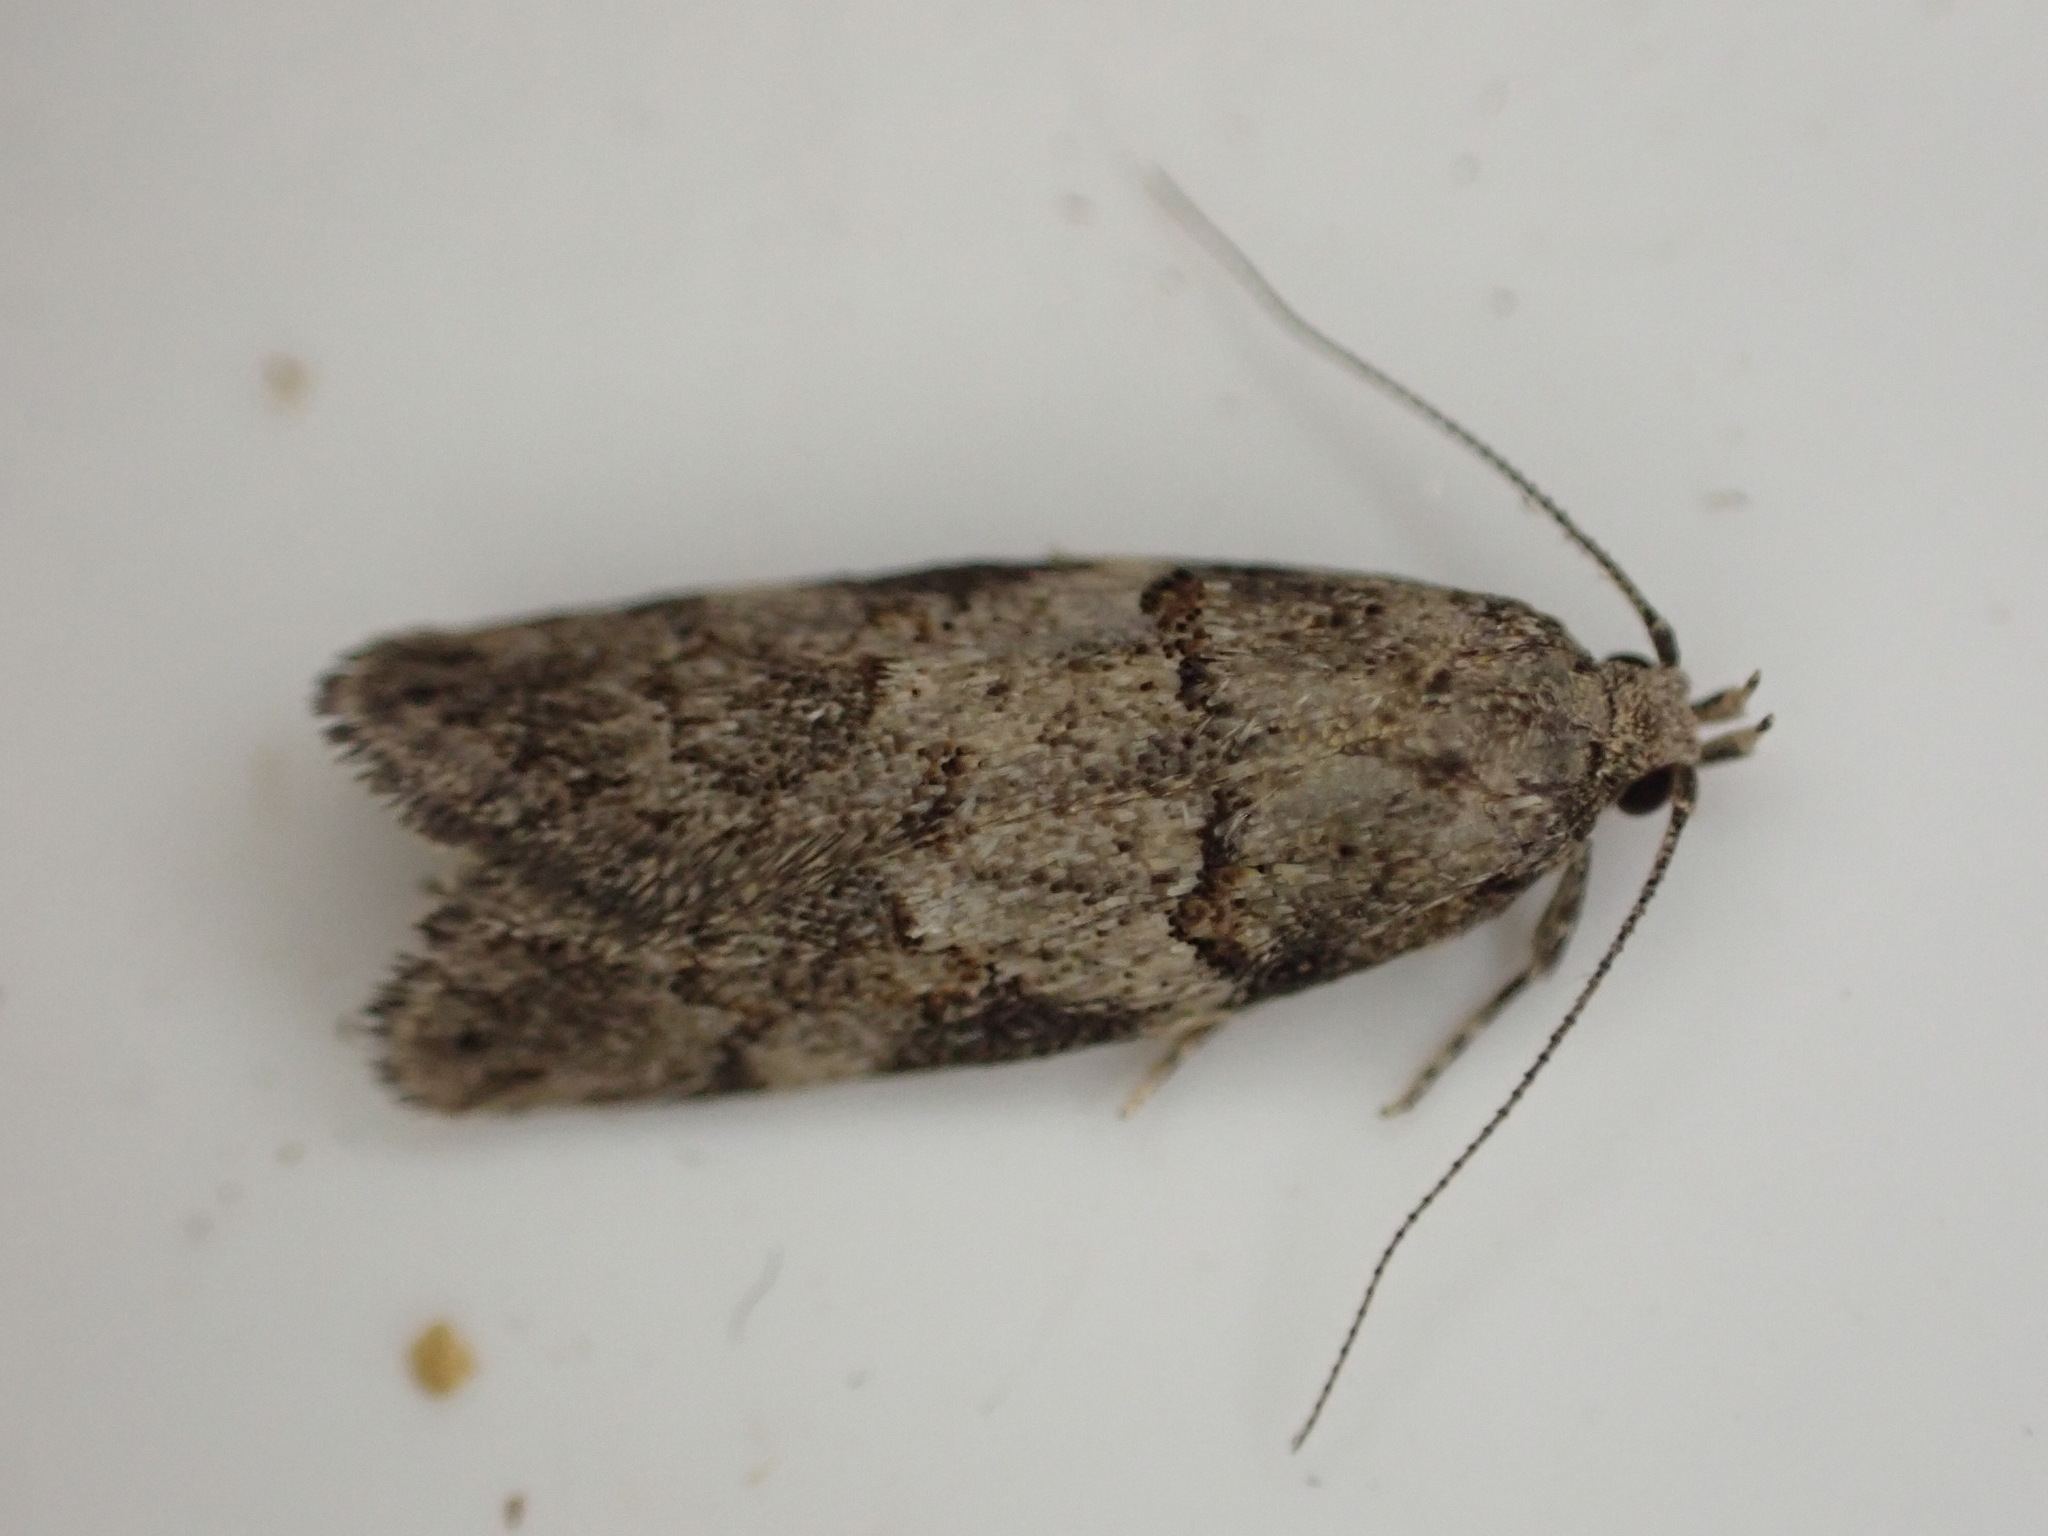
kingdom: Animalia
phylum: Arthropoda
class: Insecta
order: Lepidoptera
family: Oecophoridae
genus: Trachypepla
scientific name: Trachypepla contritella
